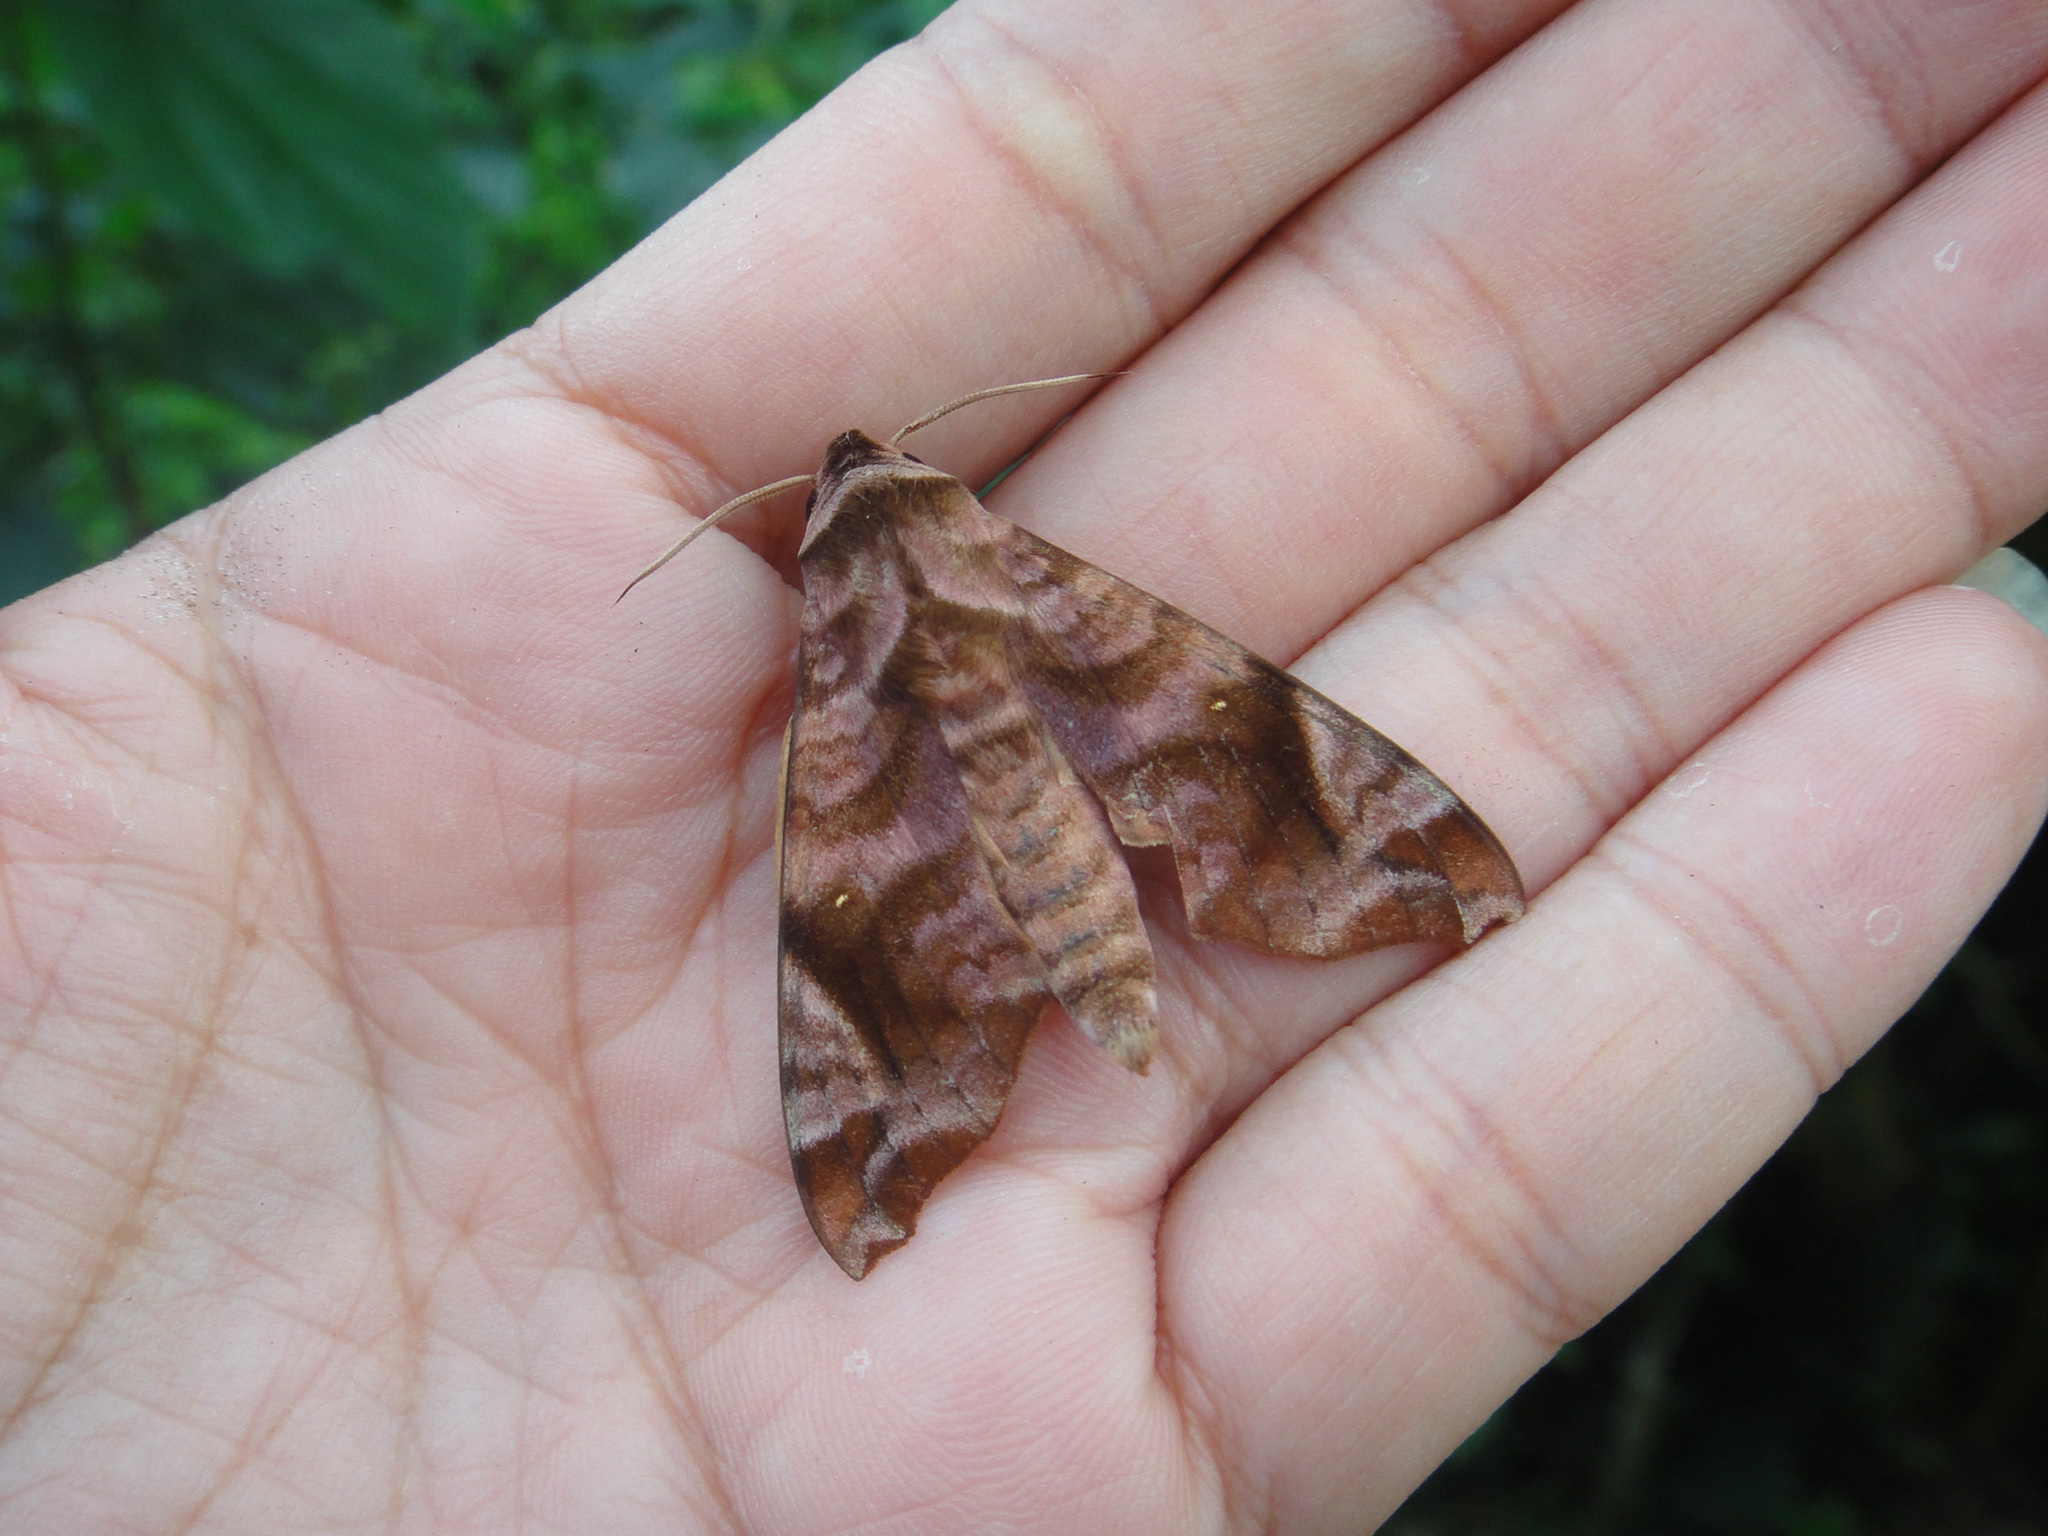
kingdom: Animalia
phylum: Arthropoda
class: Insecta
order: Lepidoptera
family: Sphingidae
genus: Acosmeryx
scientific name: Acosmeryx anceus
